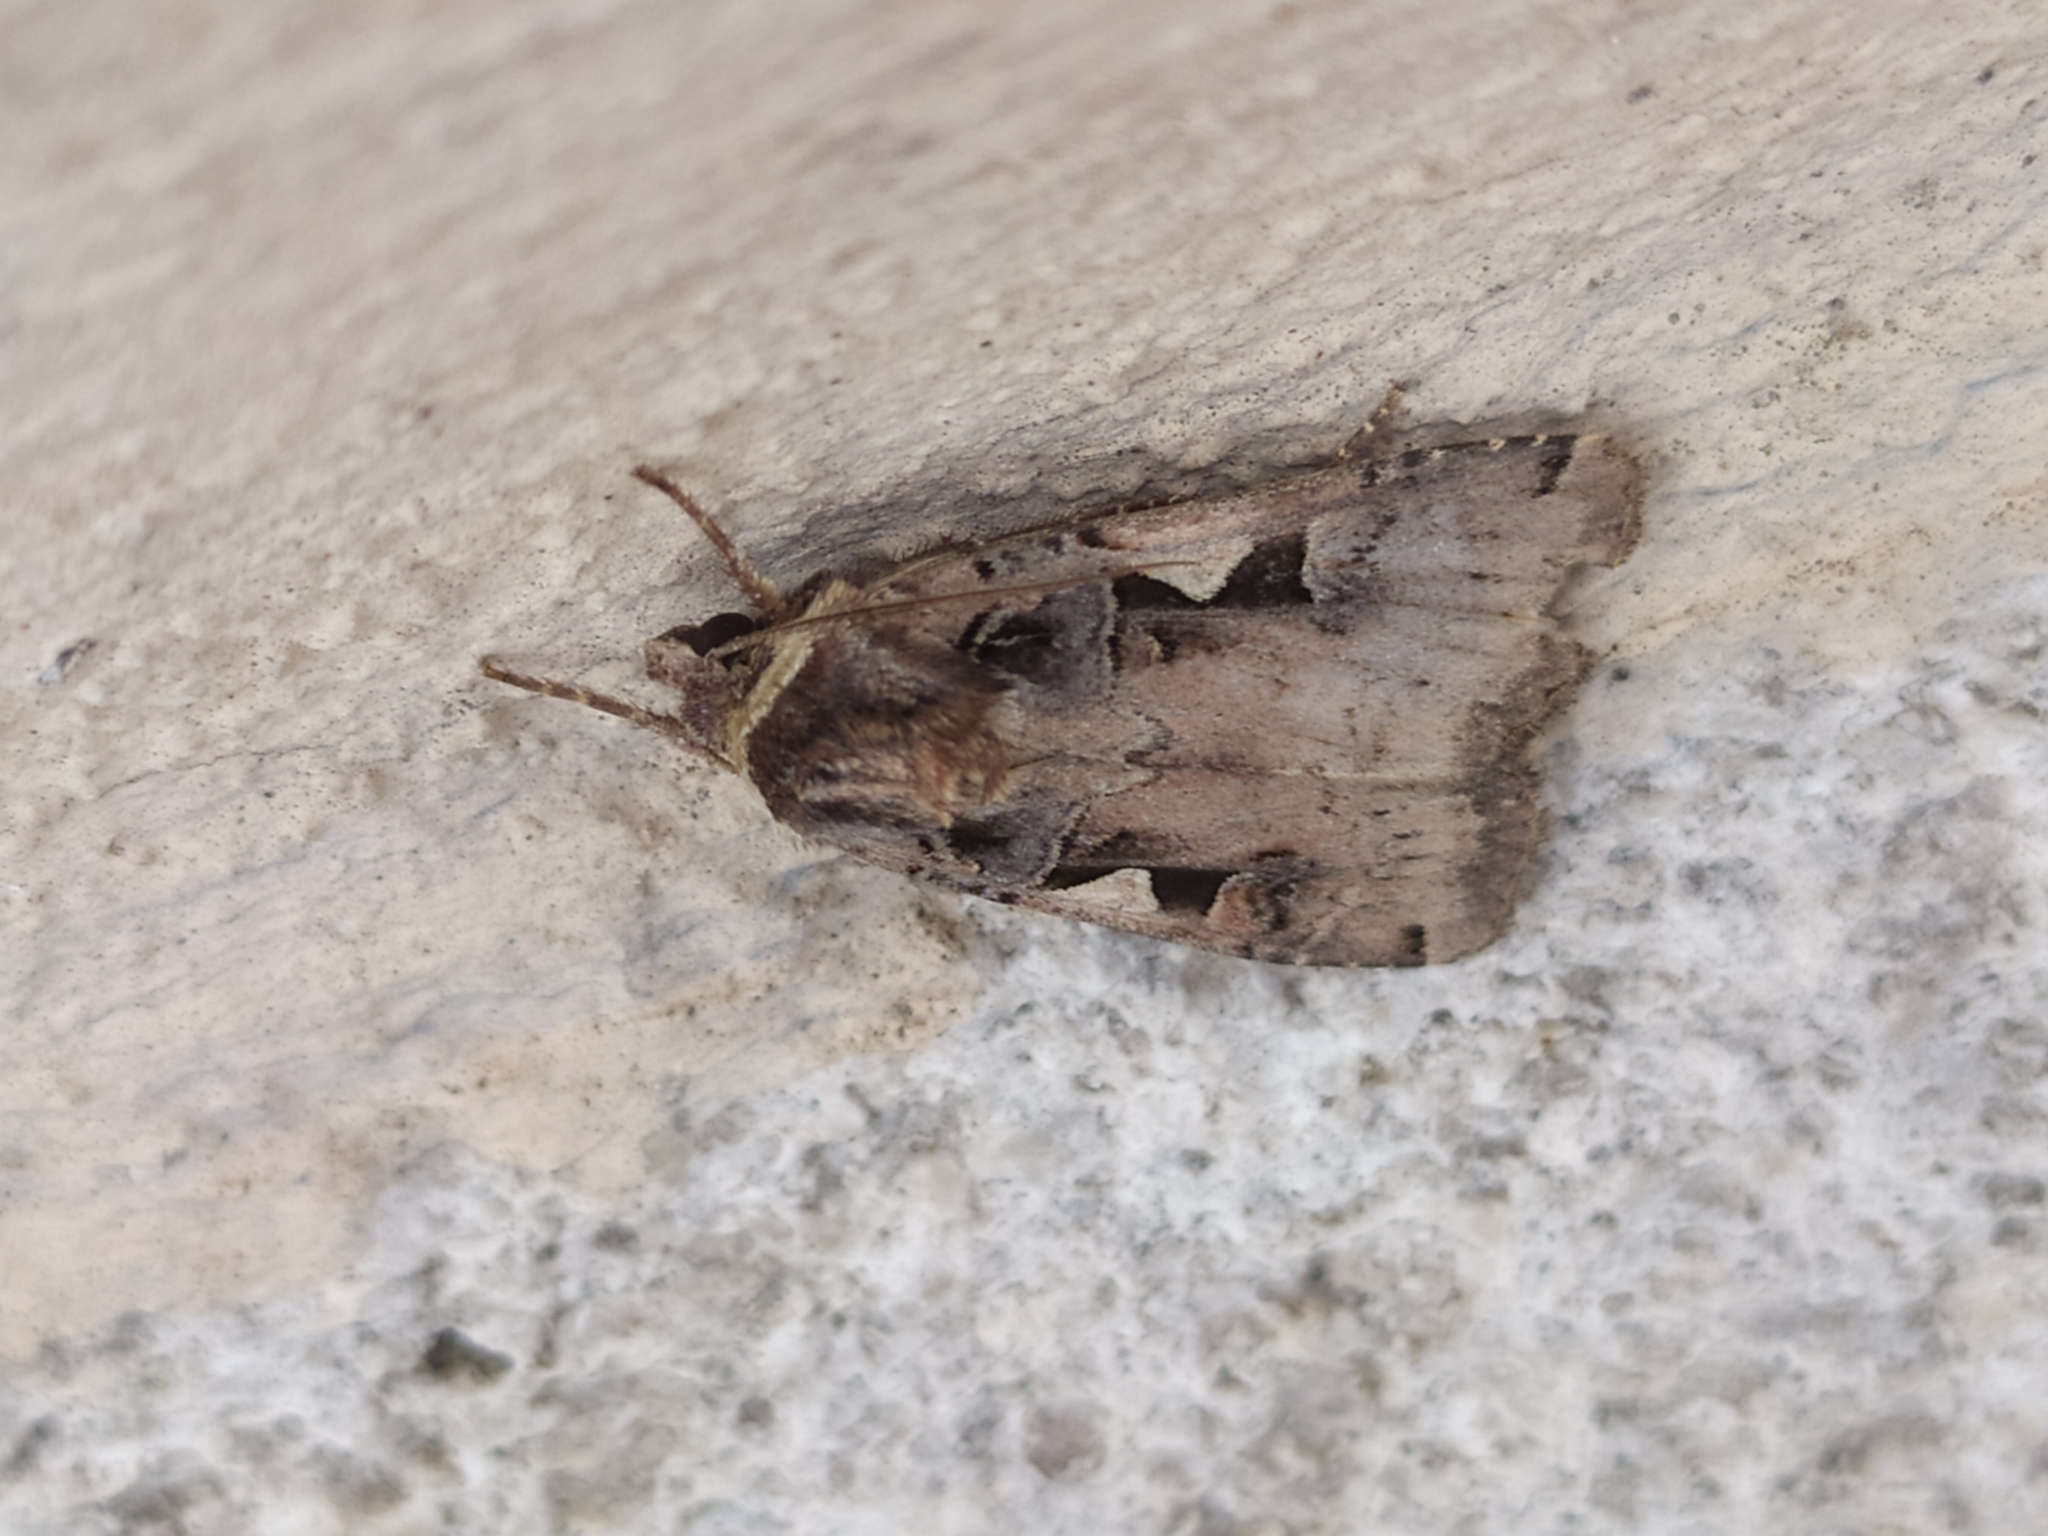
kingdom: Animalia
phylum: Arthropoda
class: Insecta
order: Lepidoptera
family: Noctuidae
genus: Xestia
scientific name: Xestia c-nigrum
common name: Setaceous hebrew character
